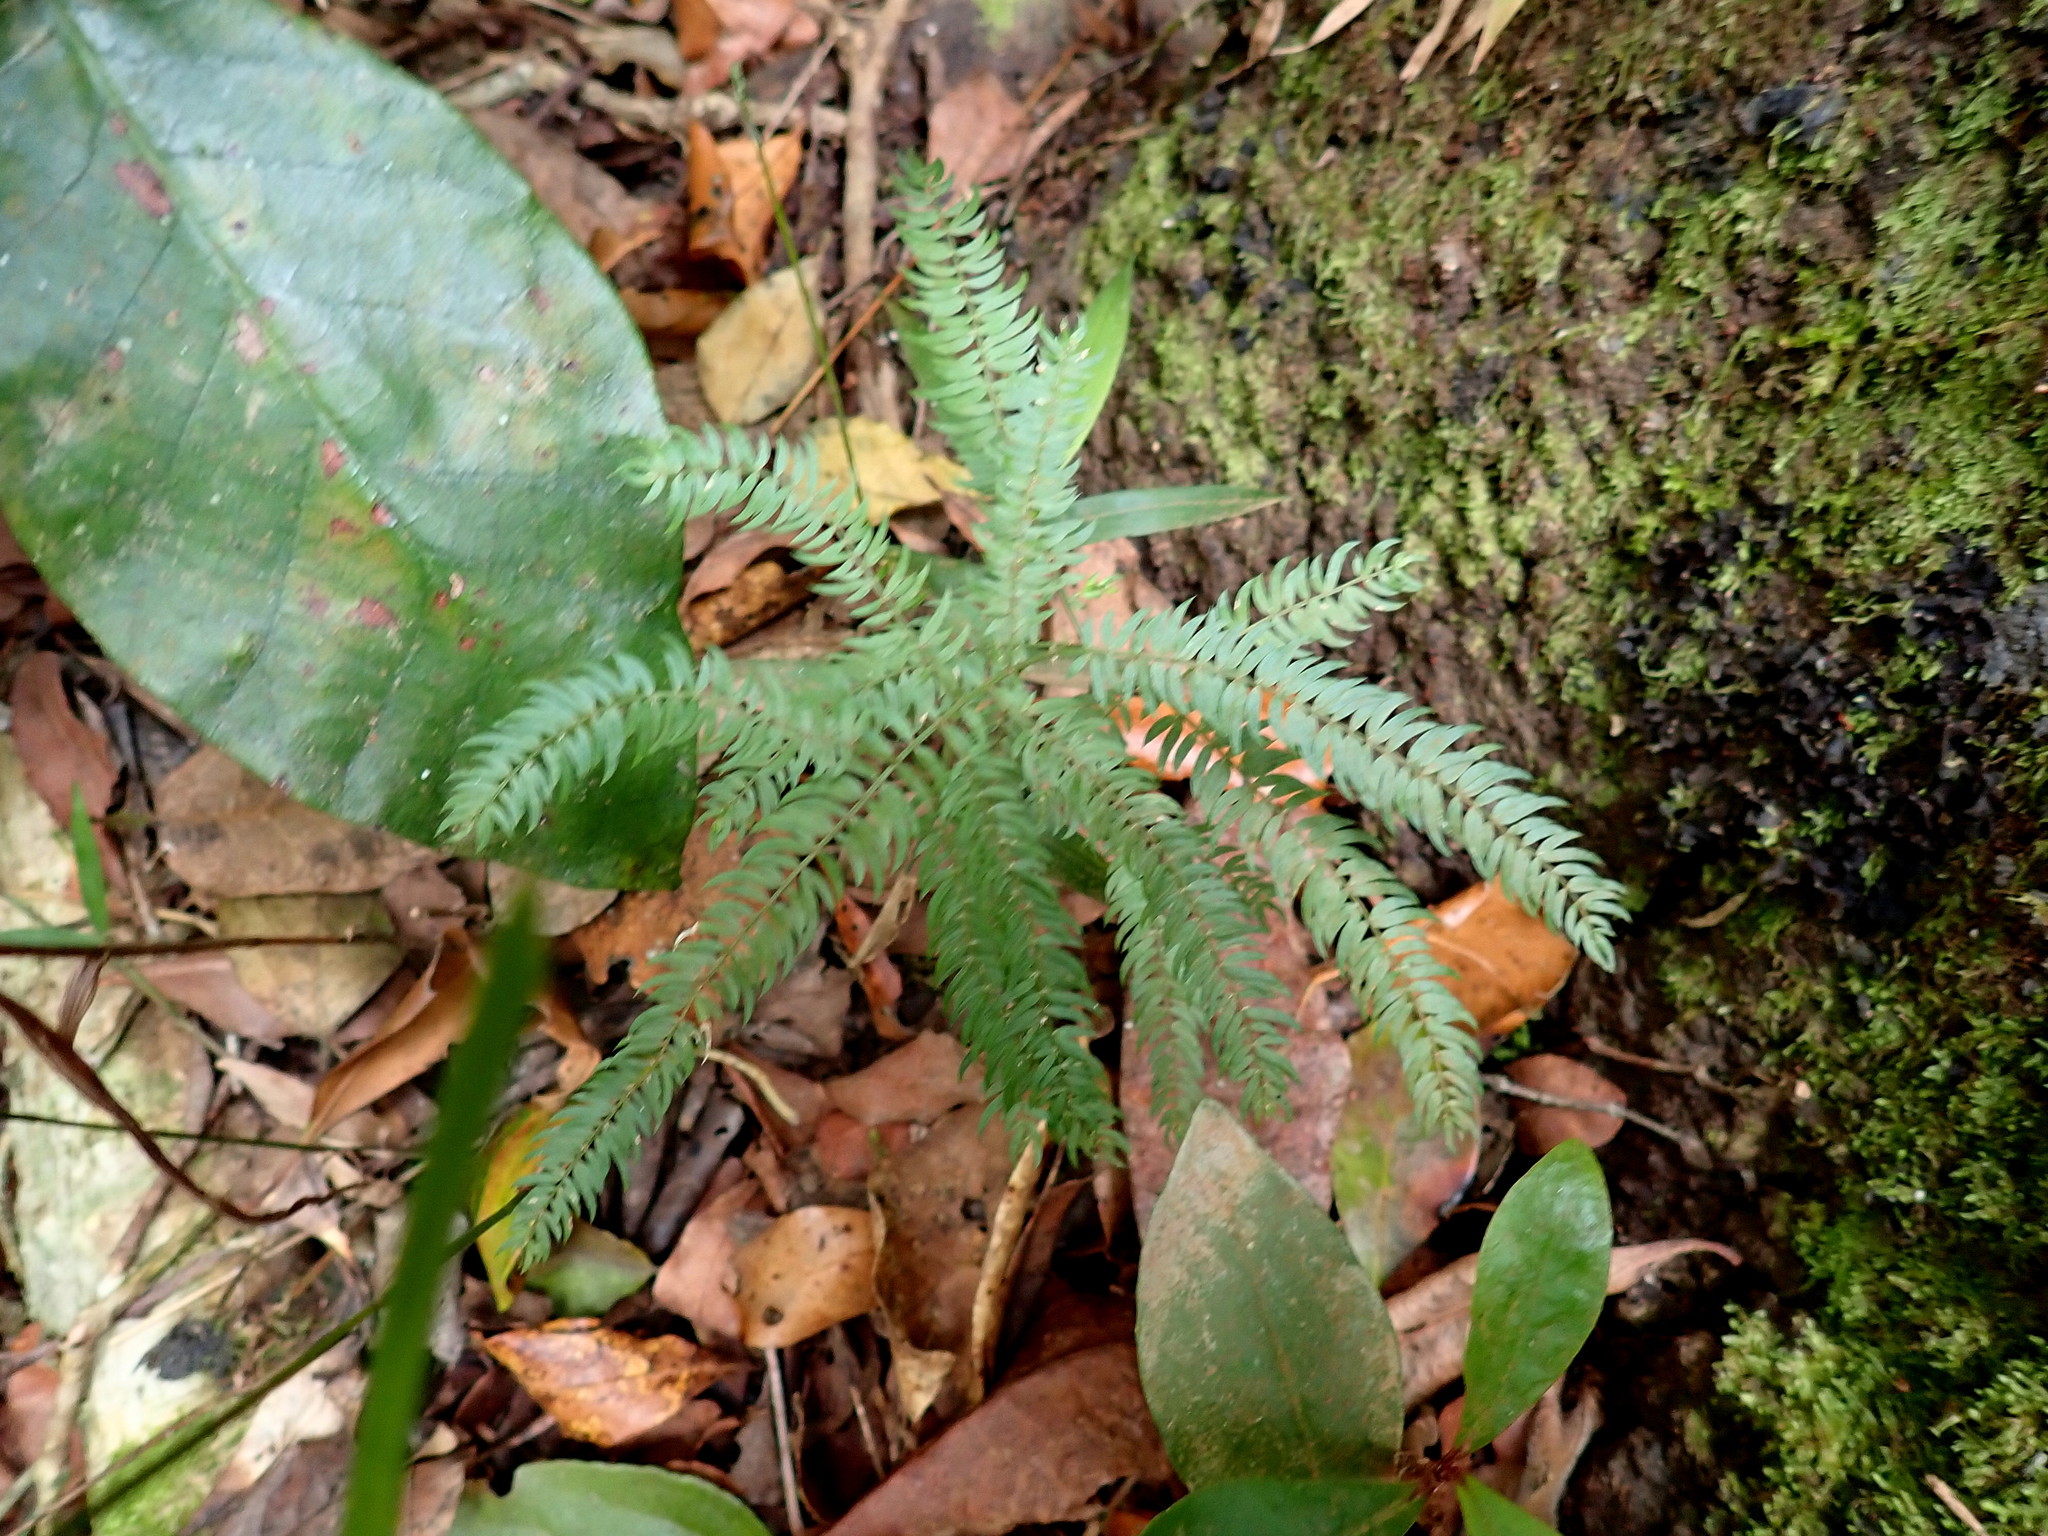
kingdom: Plantae
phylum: Tracheophyta
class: Liliopsida
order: Asparagales
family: Asparagaceae
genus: Asparagus
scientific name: Asparagus scandens
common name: Asparagus-fern
